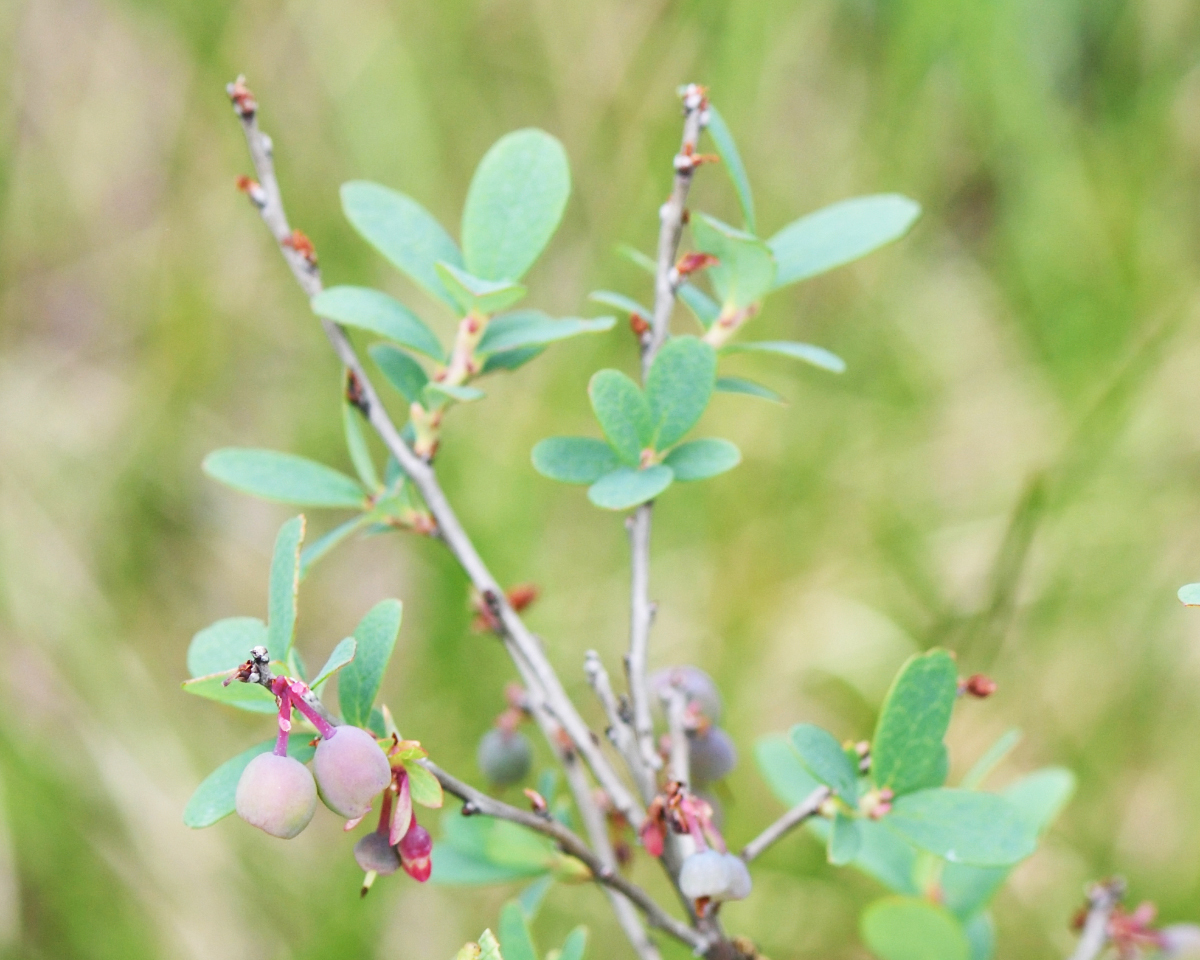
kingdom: Plantae
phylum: Tracheophyta
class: Magnoliopsida
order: Ericales
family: Ericaceae
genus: Vaccinium
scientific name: Vaccinium uliginosum
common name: Bog bilberry
